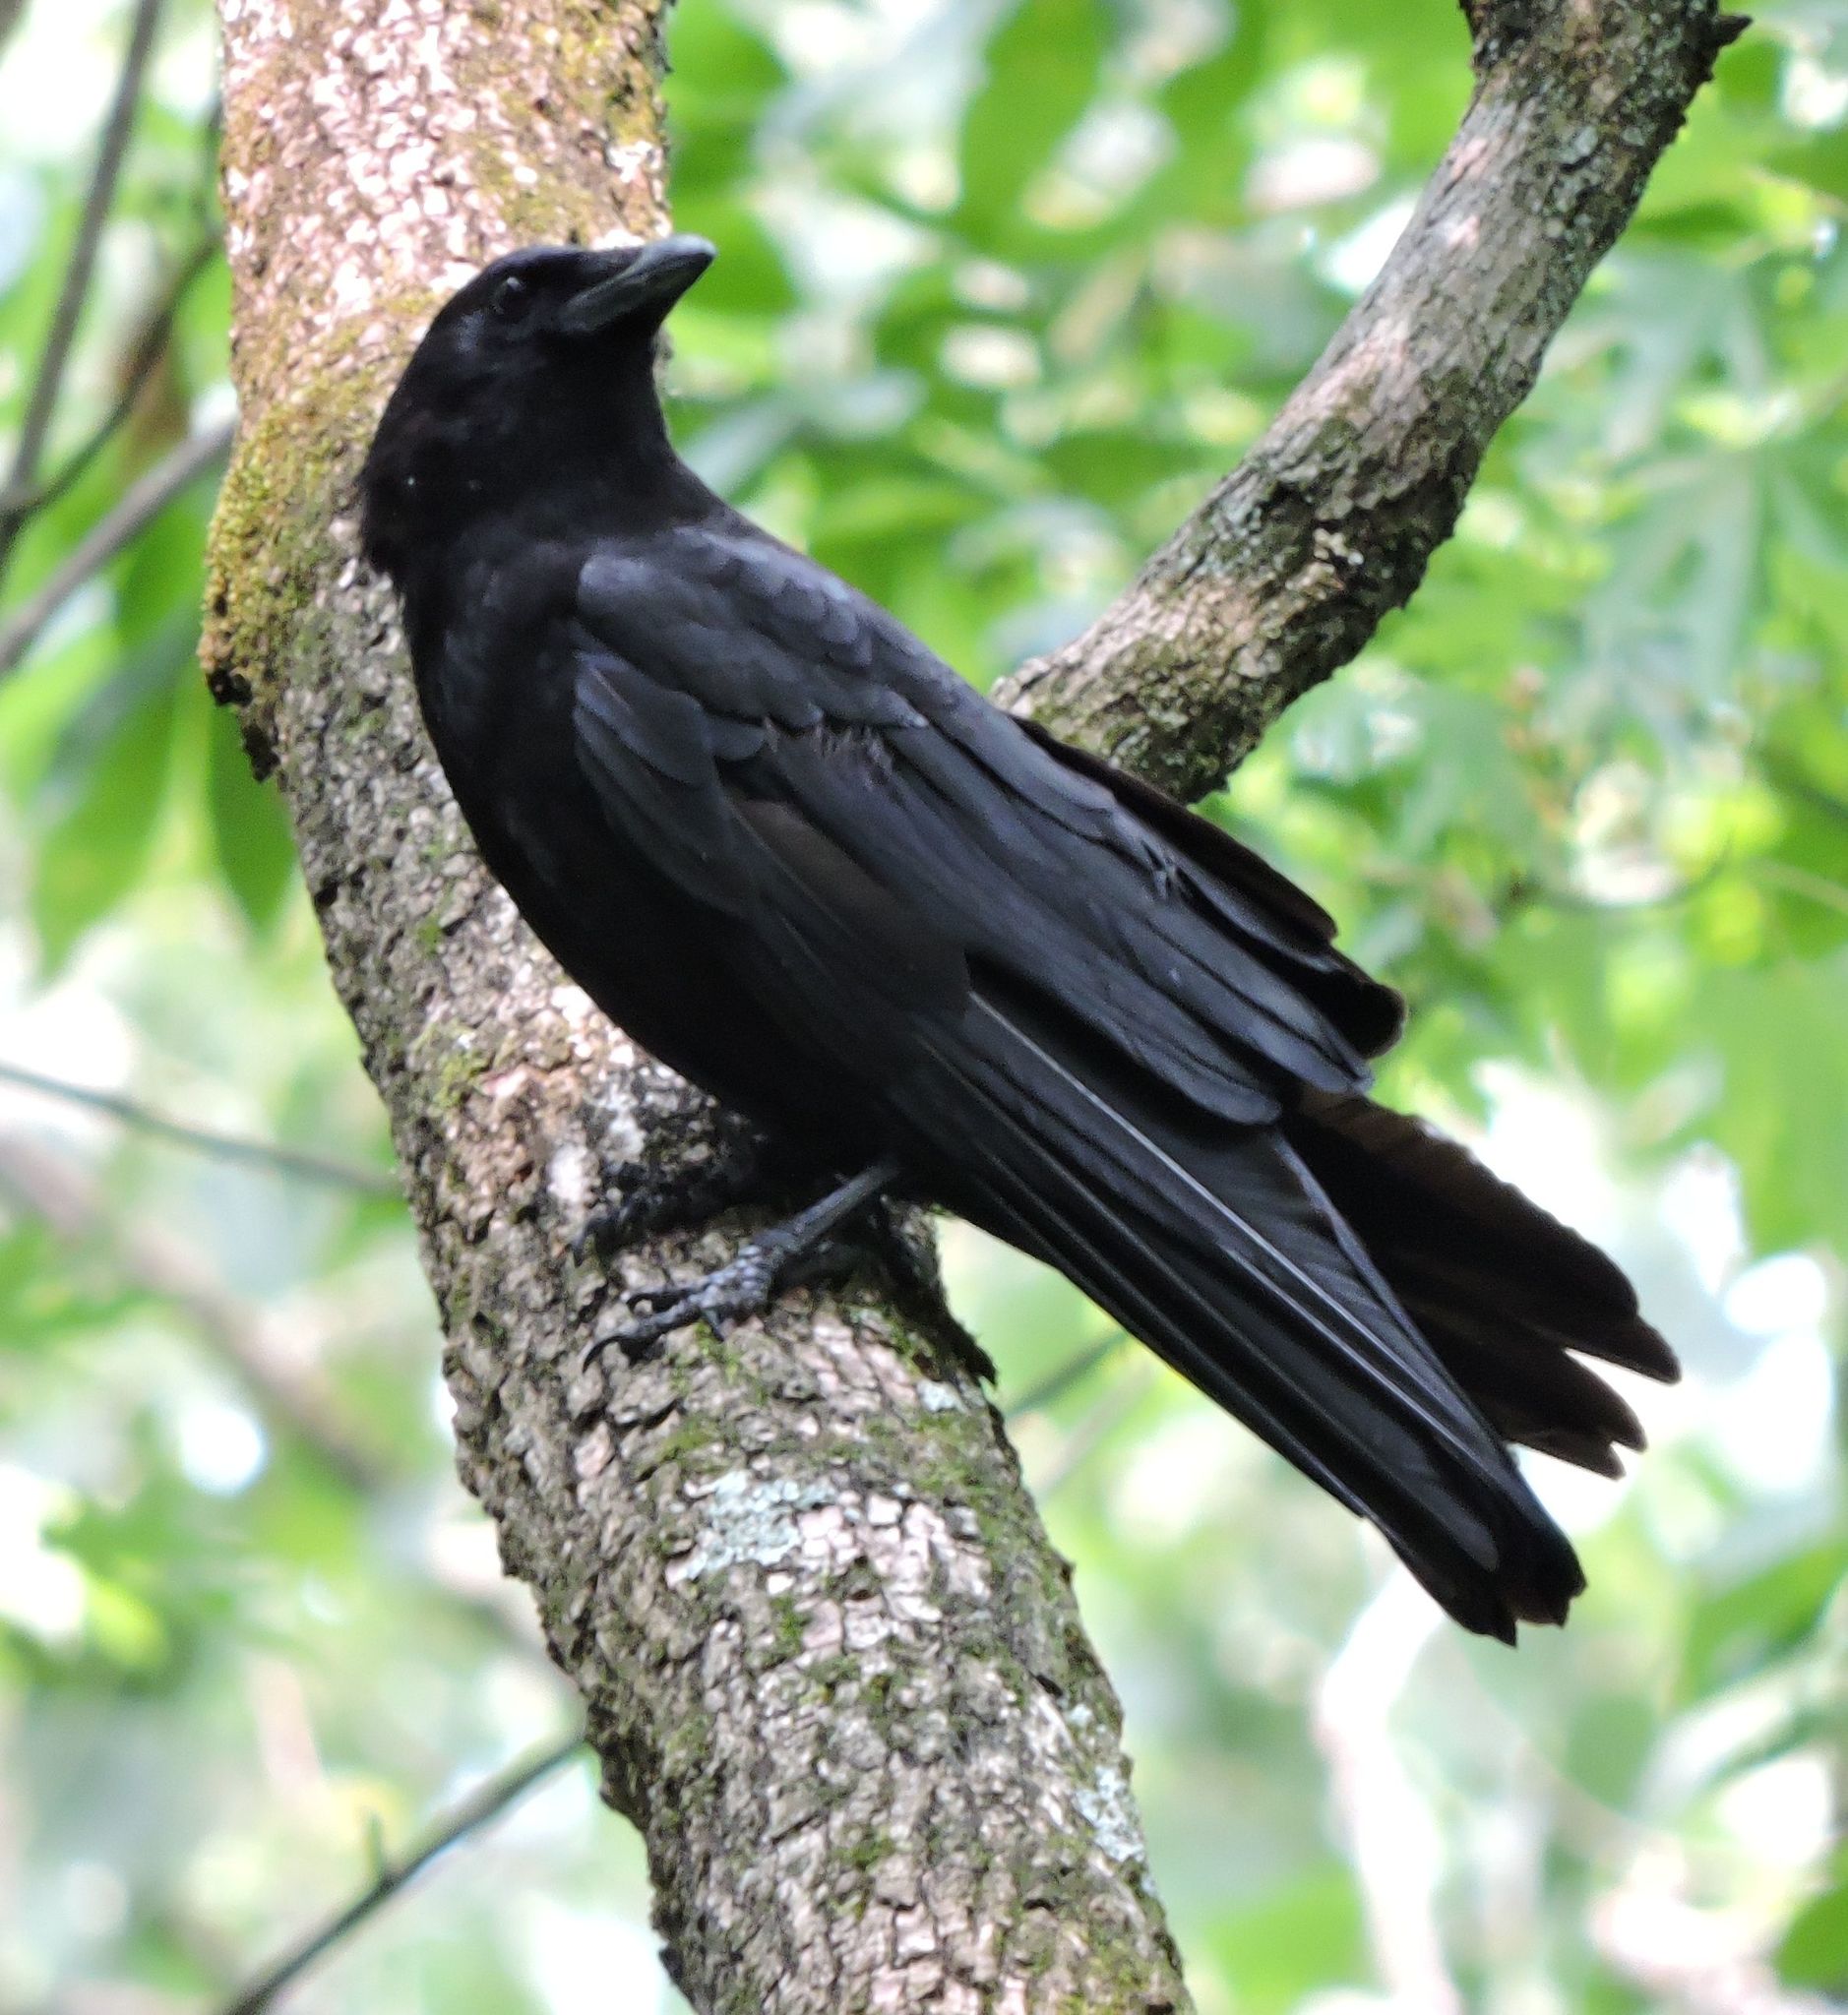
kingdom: Animalia
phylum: Chordata
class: Aves
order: Passeriformes
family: Corvidae
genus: Corvus
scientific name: Corvus brachyrhynchos
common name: American crow
